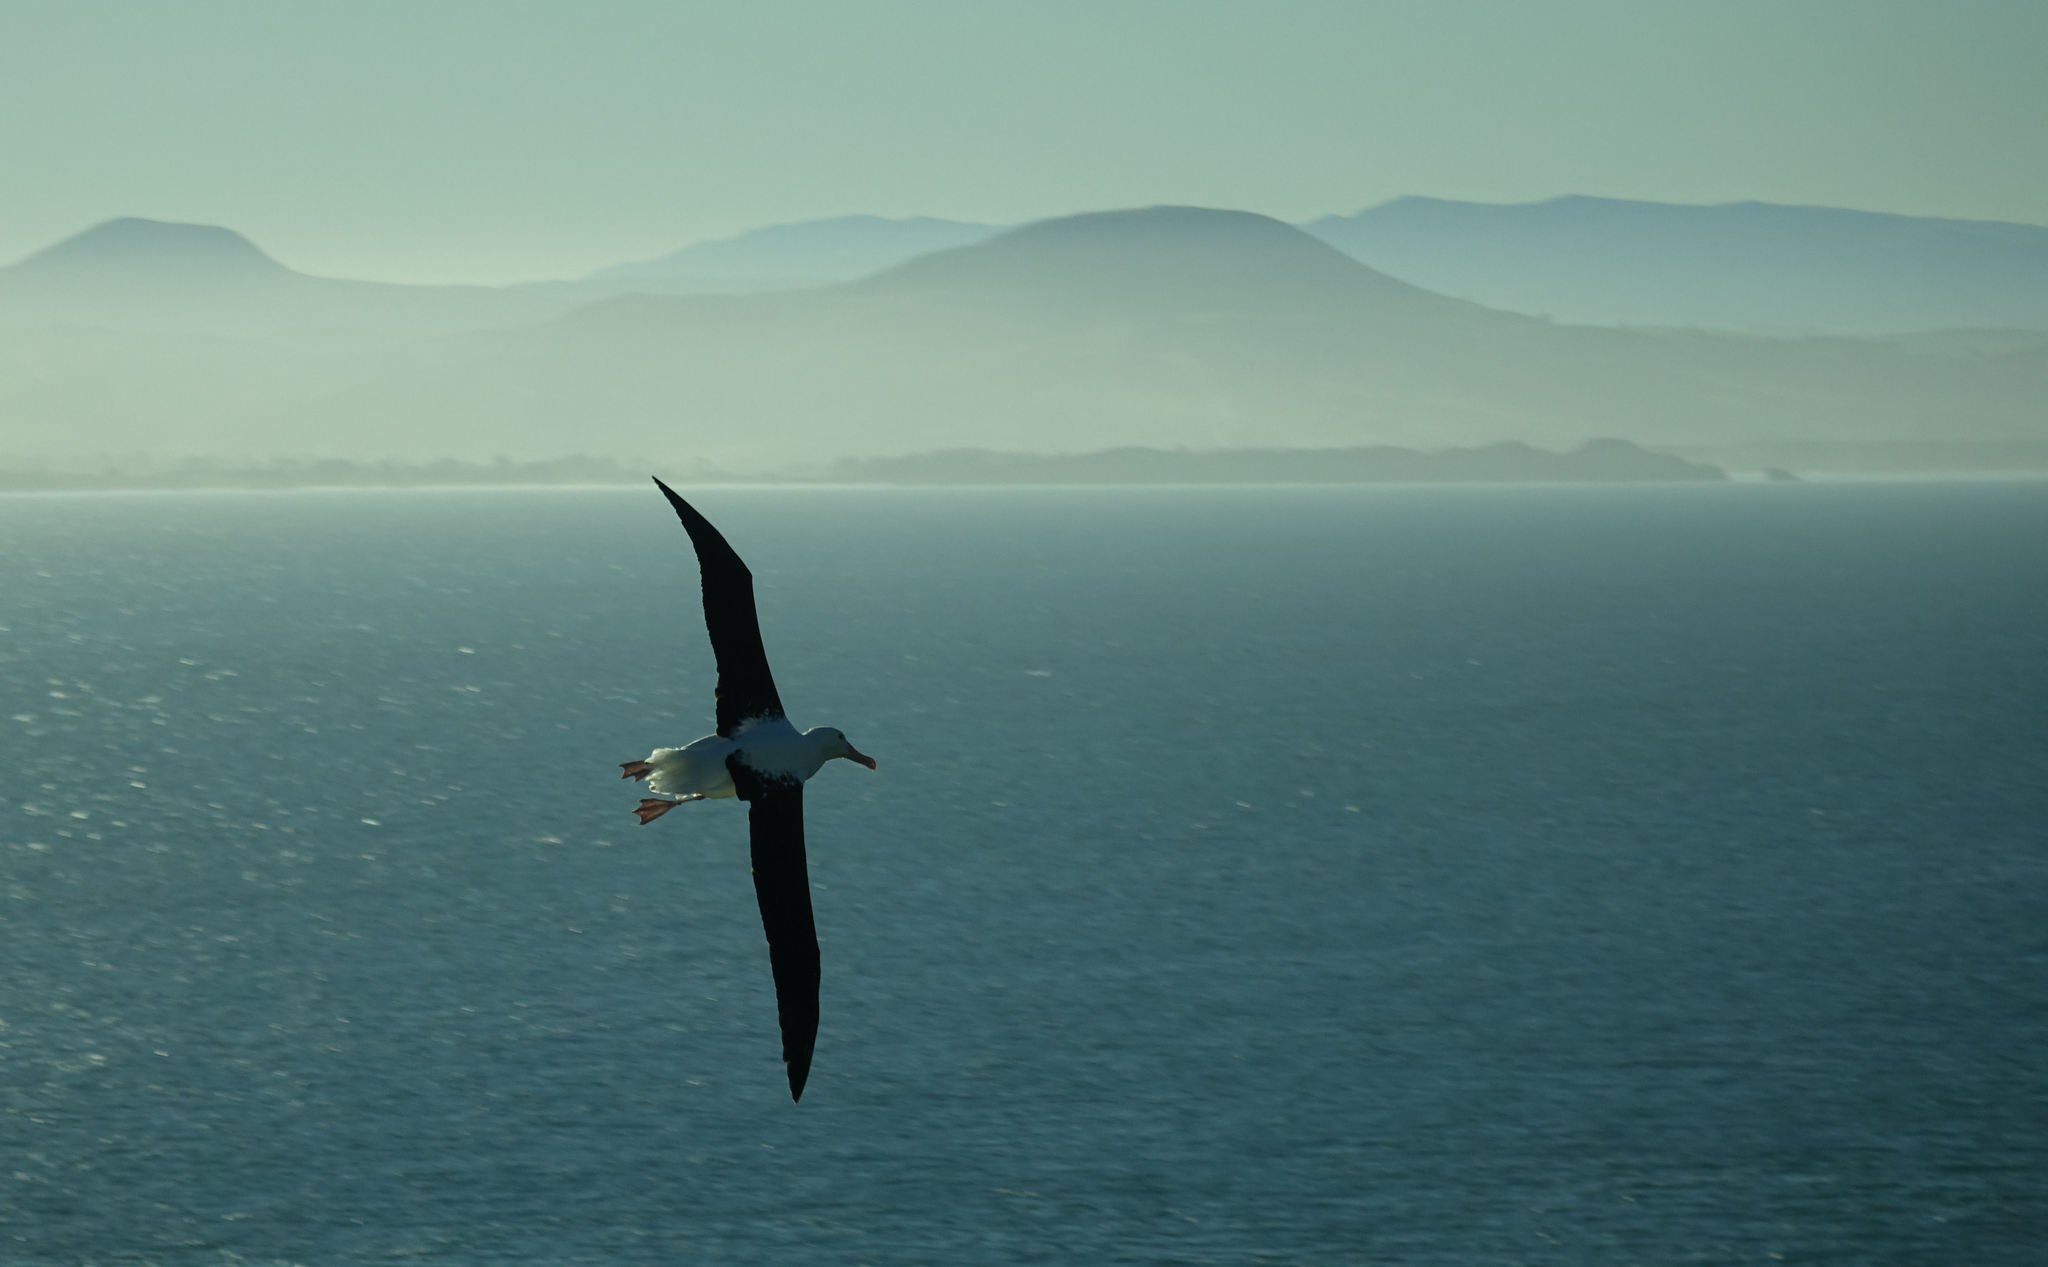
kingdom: Animalia
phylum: Chordata
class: Aves
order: Procellariiformes
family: Diomedeidae
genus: Diomedea
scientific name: Diomedea sanfordi
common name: Northern royal albatross
